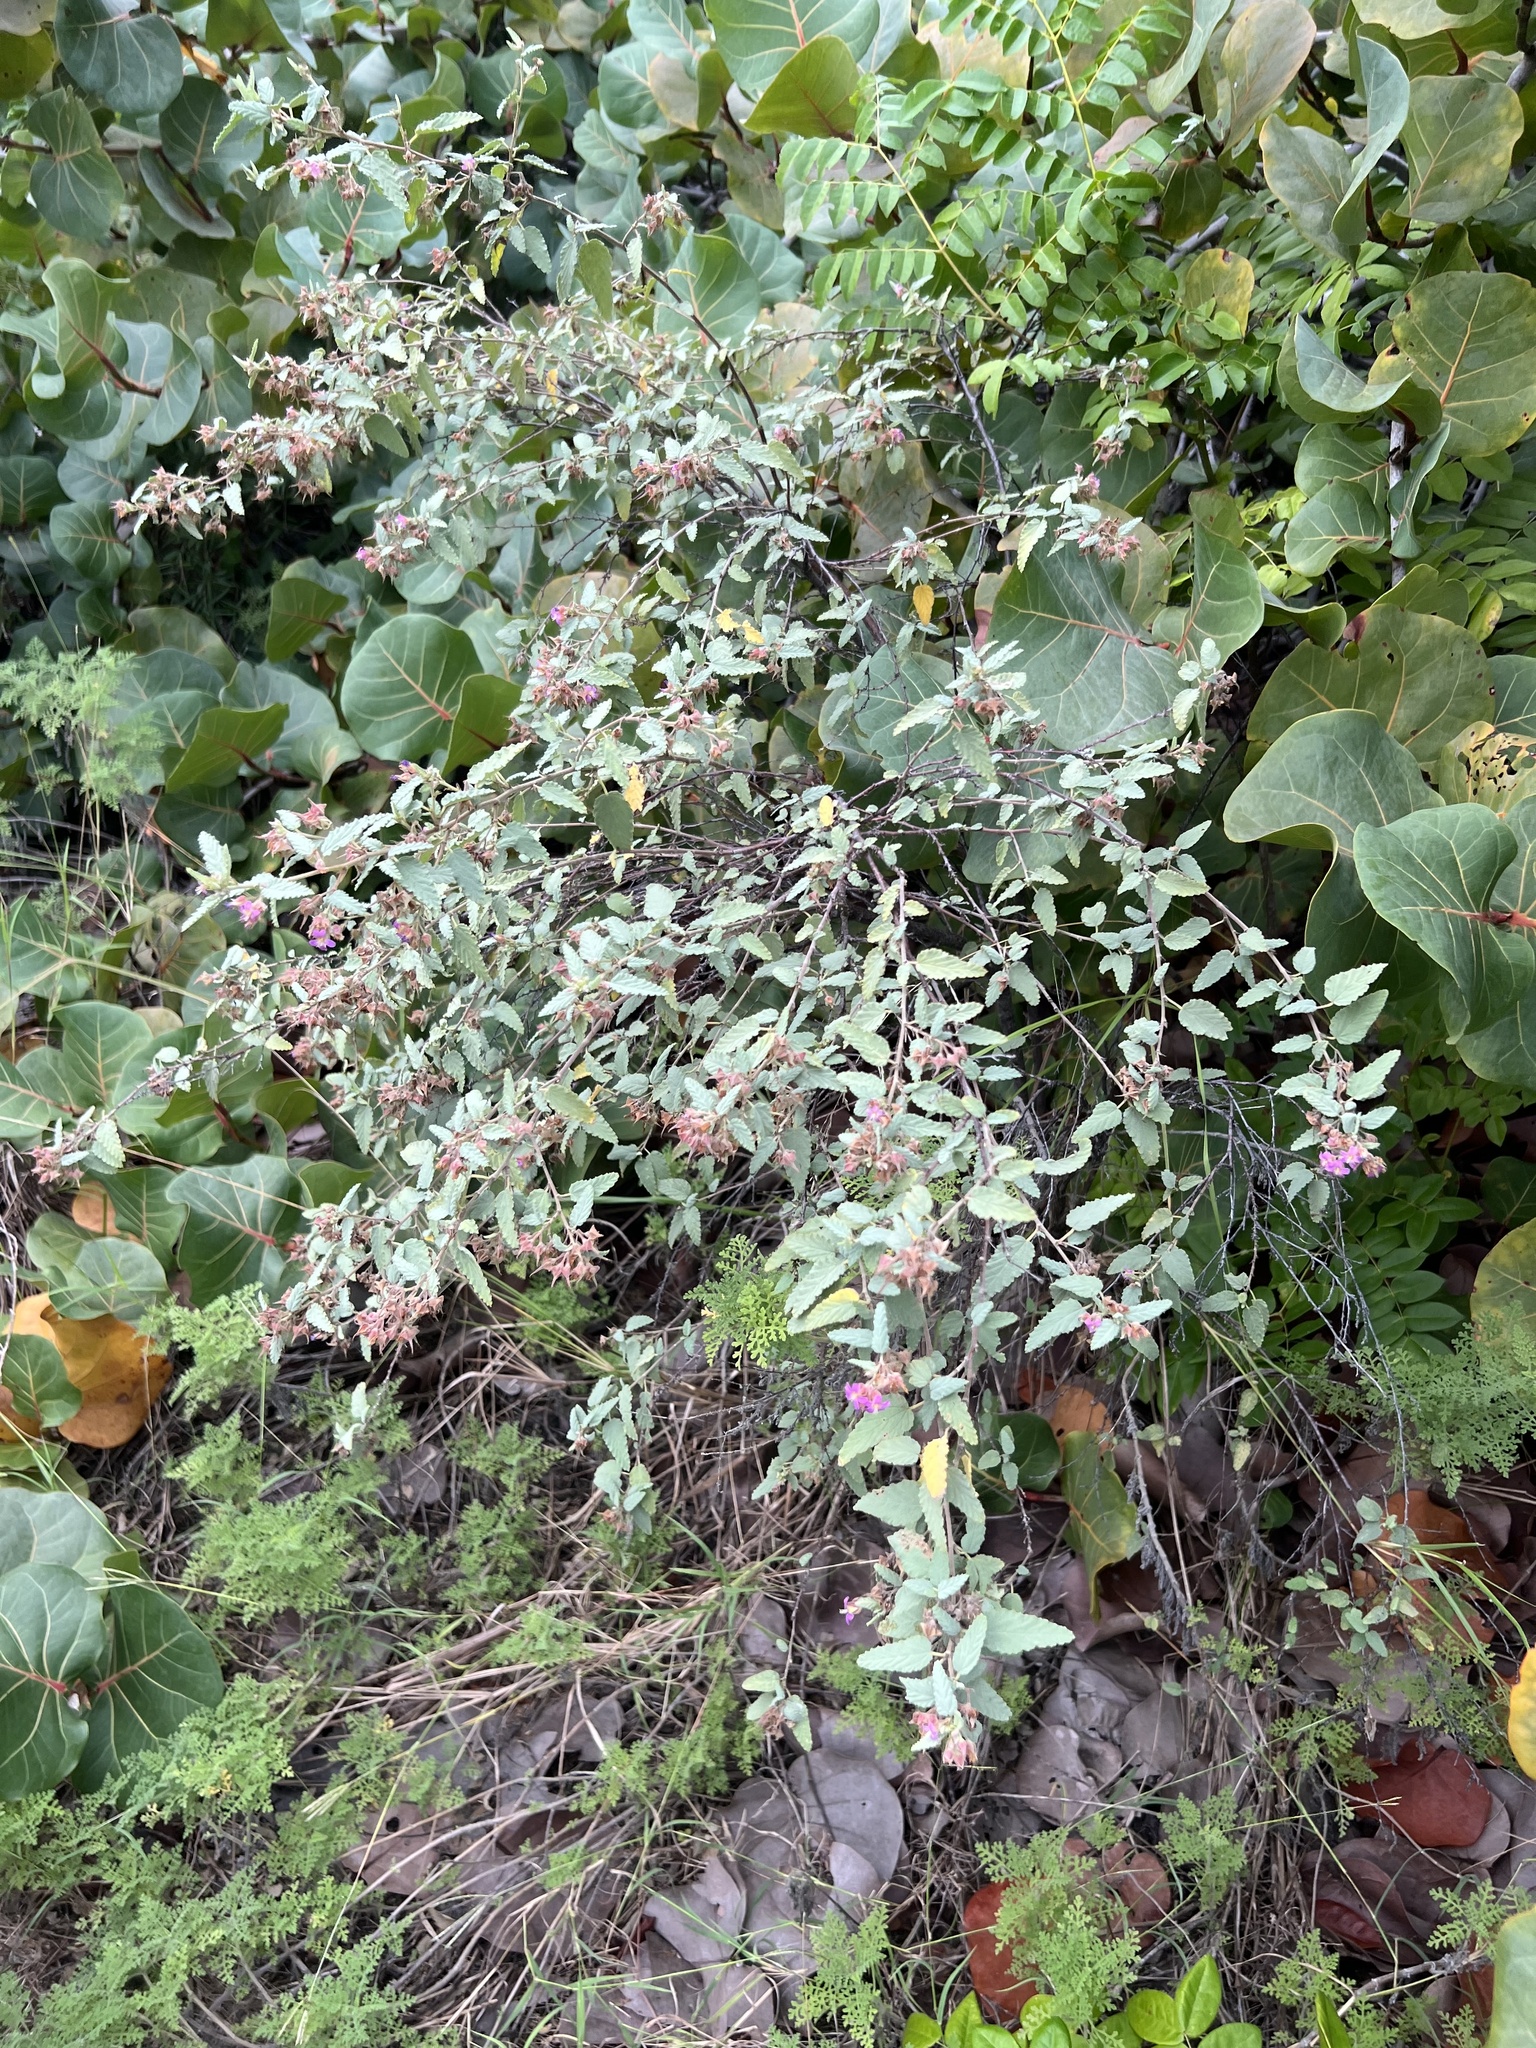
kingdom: Plantae
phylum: Tracheophyta
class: Magnoliopsida
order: Malvales
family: Malvaceae
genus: Melochia
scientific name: Melochia tomentosa
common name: Black torch
